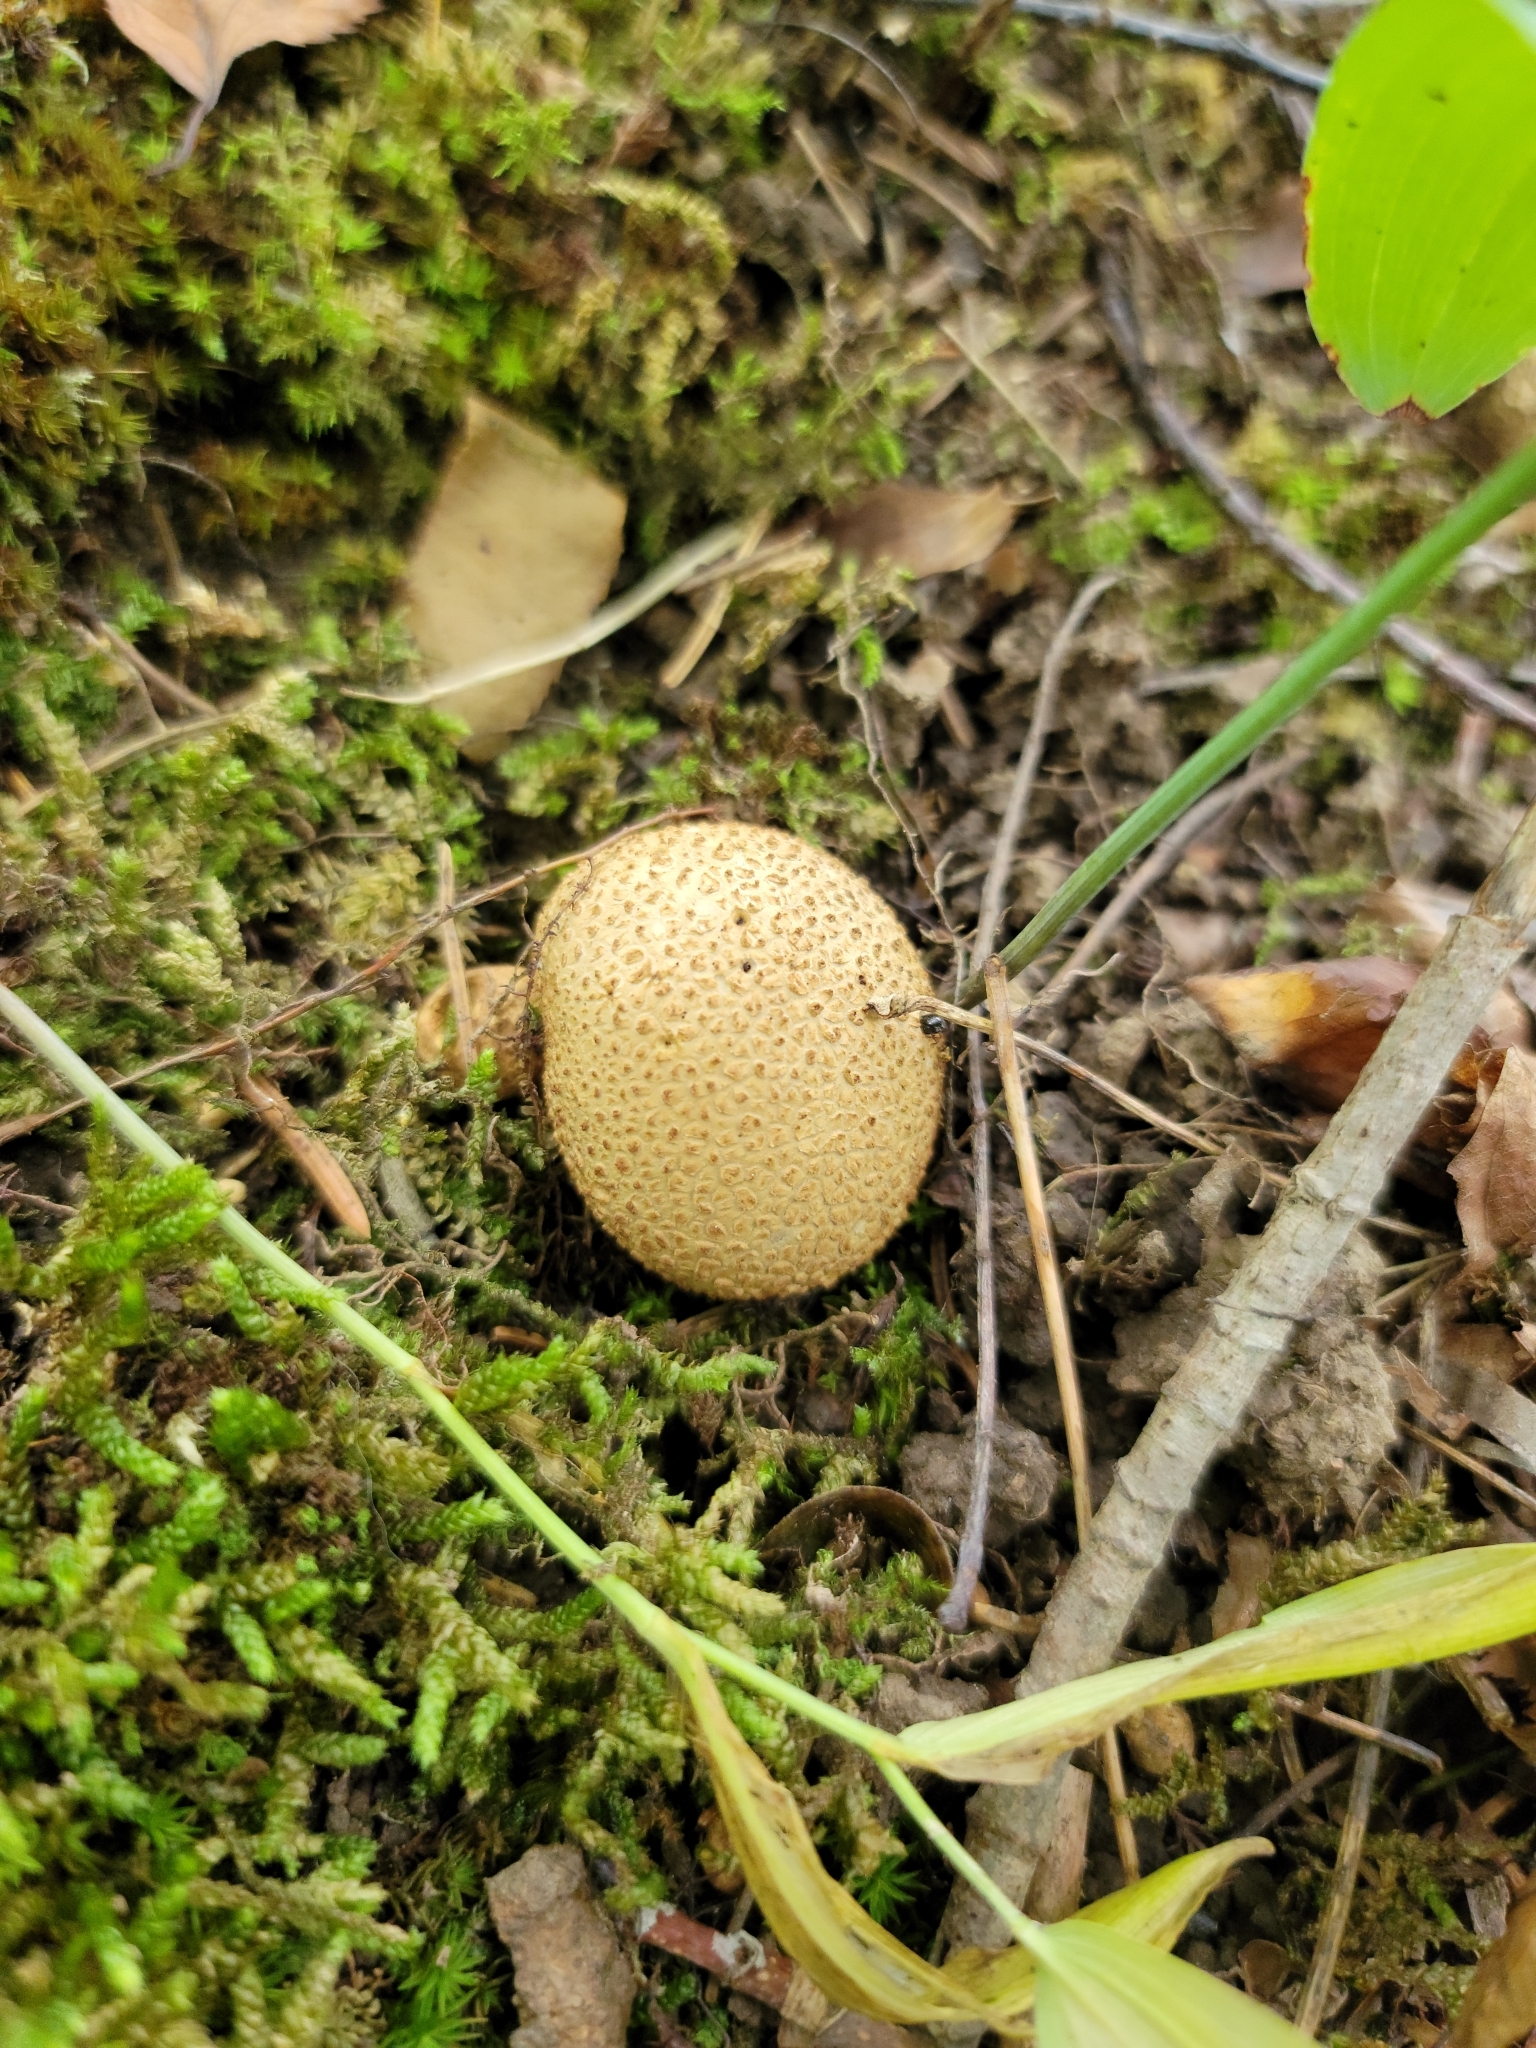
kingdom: Fungi
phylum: Basidiomycota
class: Agaricomycetes
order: Boletales
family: Sclerodermataceae
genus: Scleroderma
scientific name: Scleroderma citrinum
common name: Common earthball
